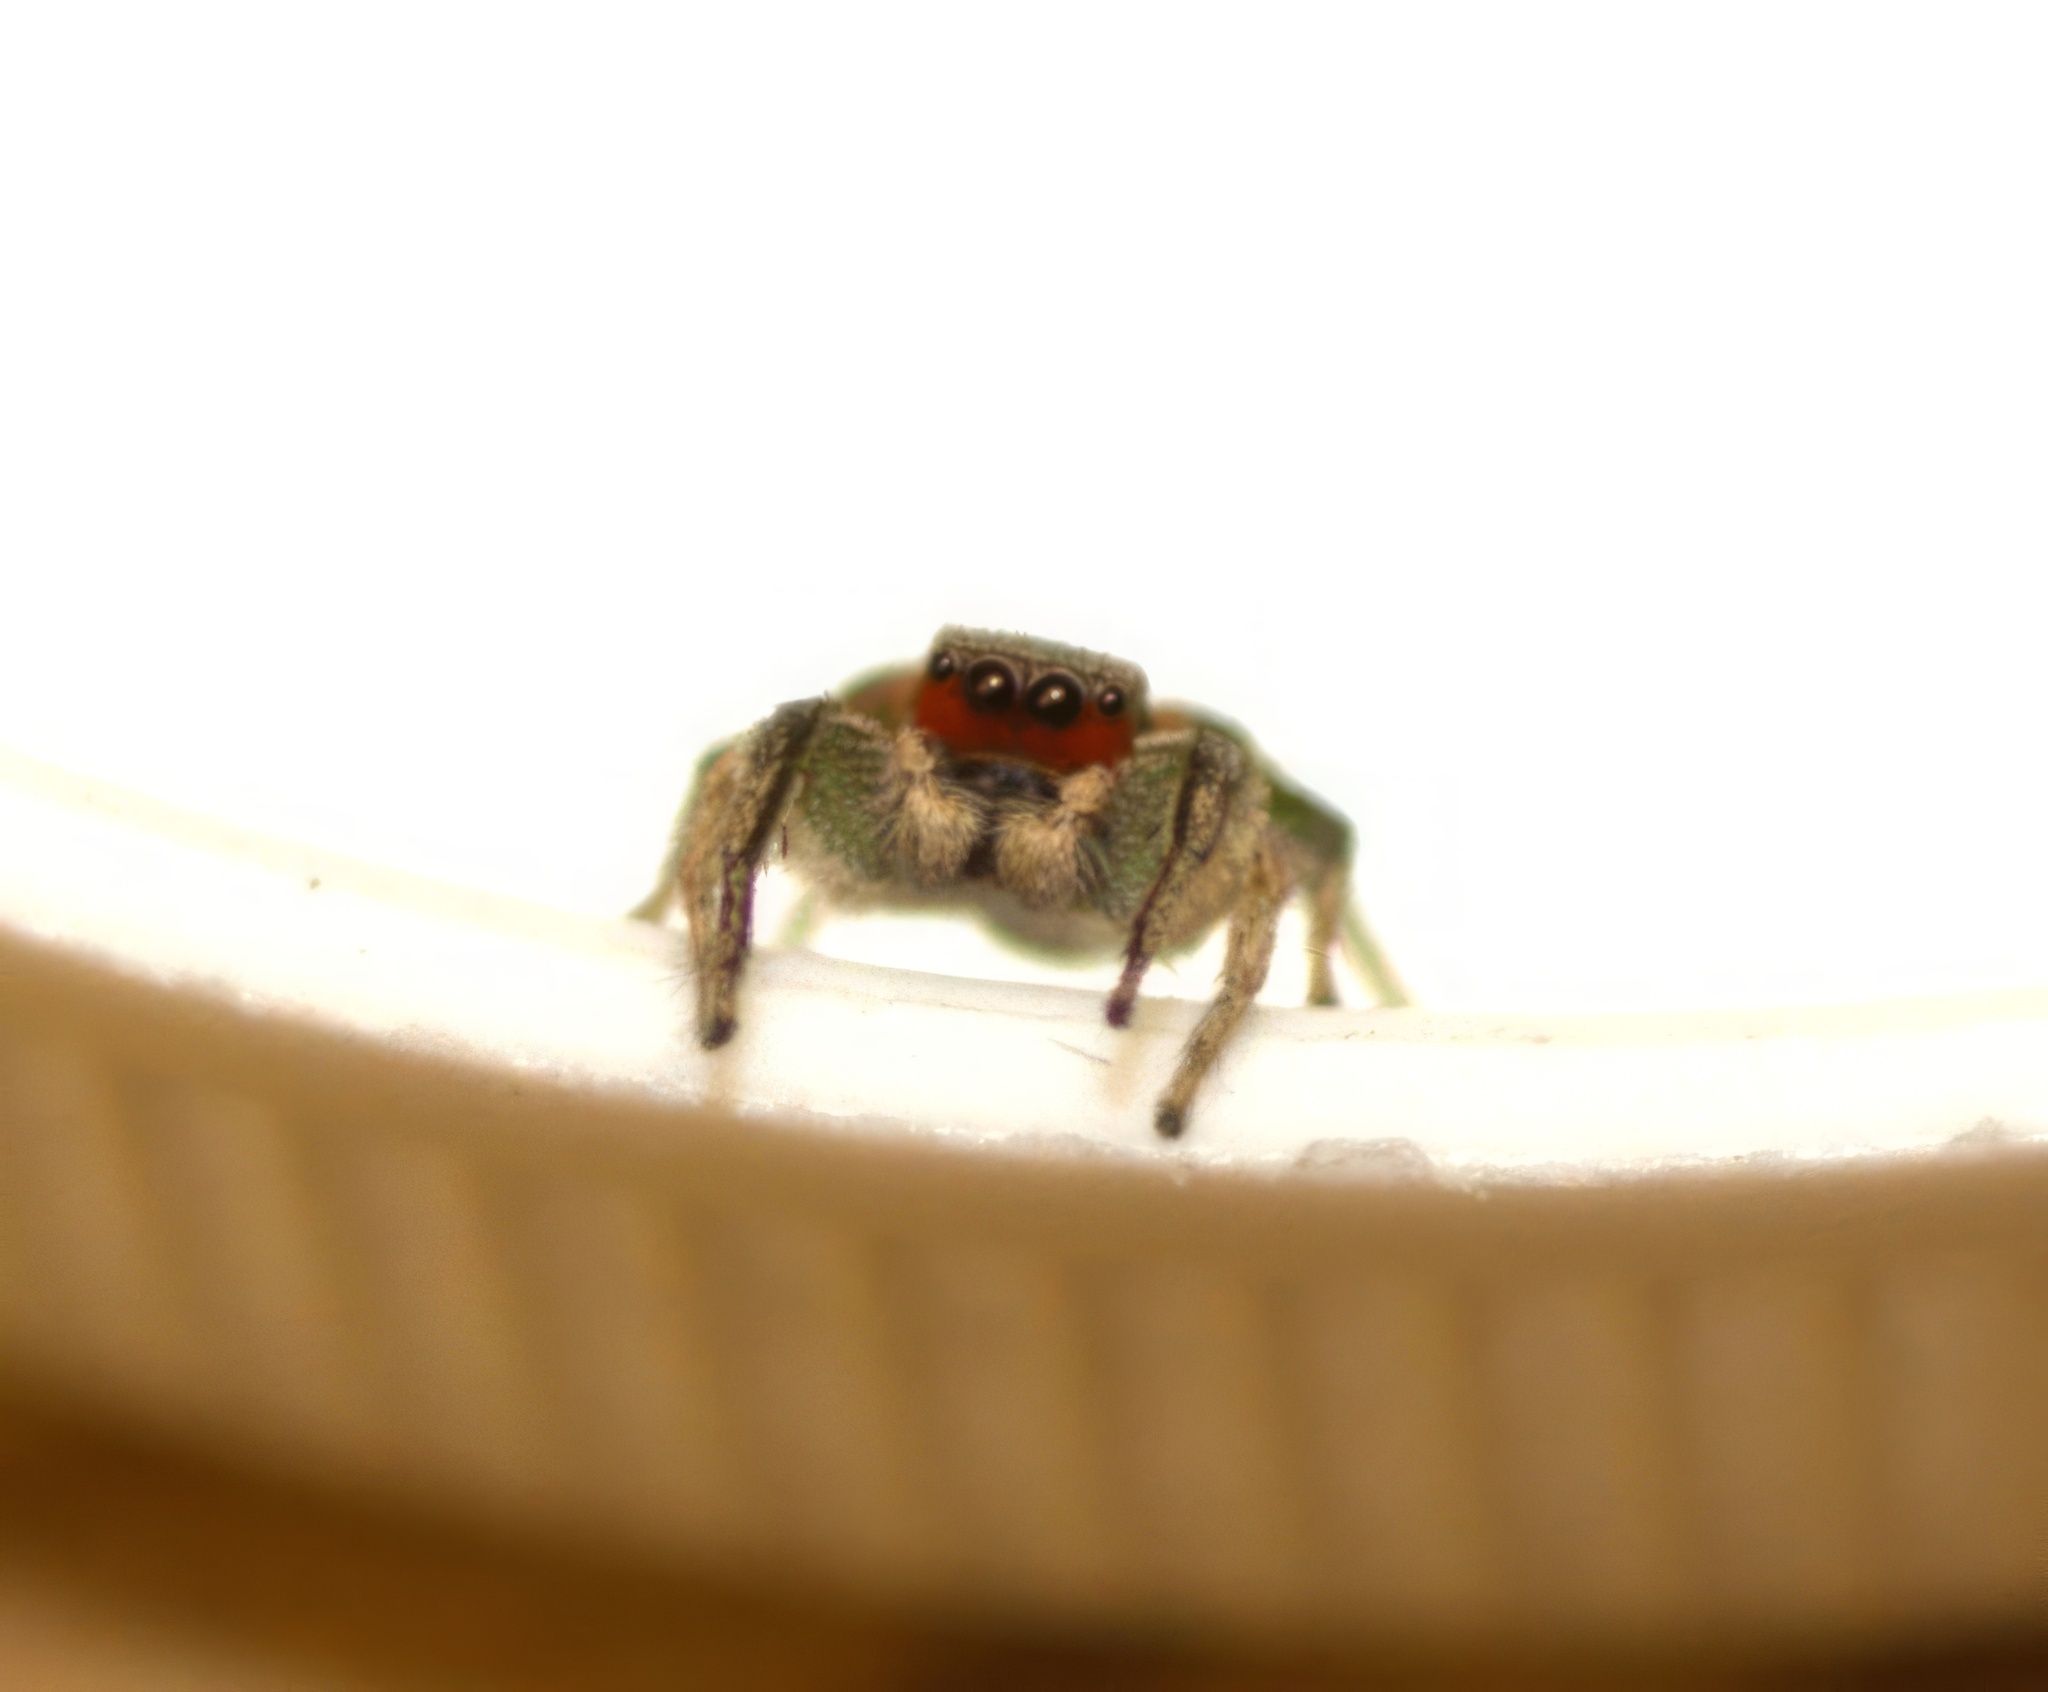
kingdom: Animalia
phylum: Arthropoda
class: Arachnida
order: Araneae
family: Salticidae
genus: Habronattus
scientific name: Habronattus pyrrithrix
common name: Jumping spider
